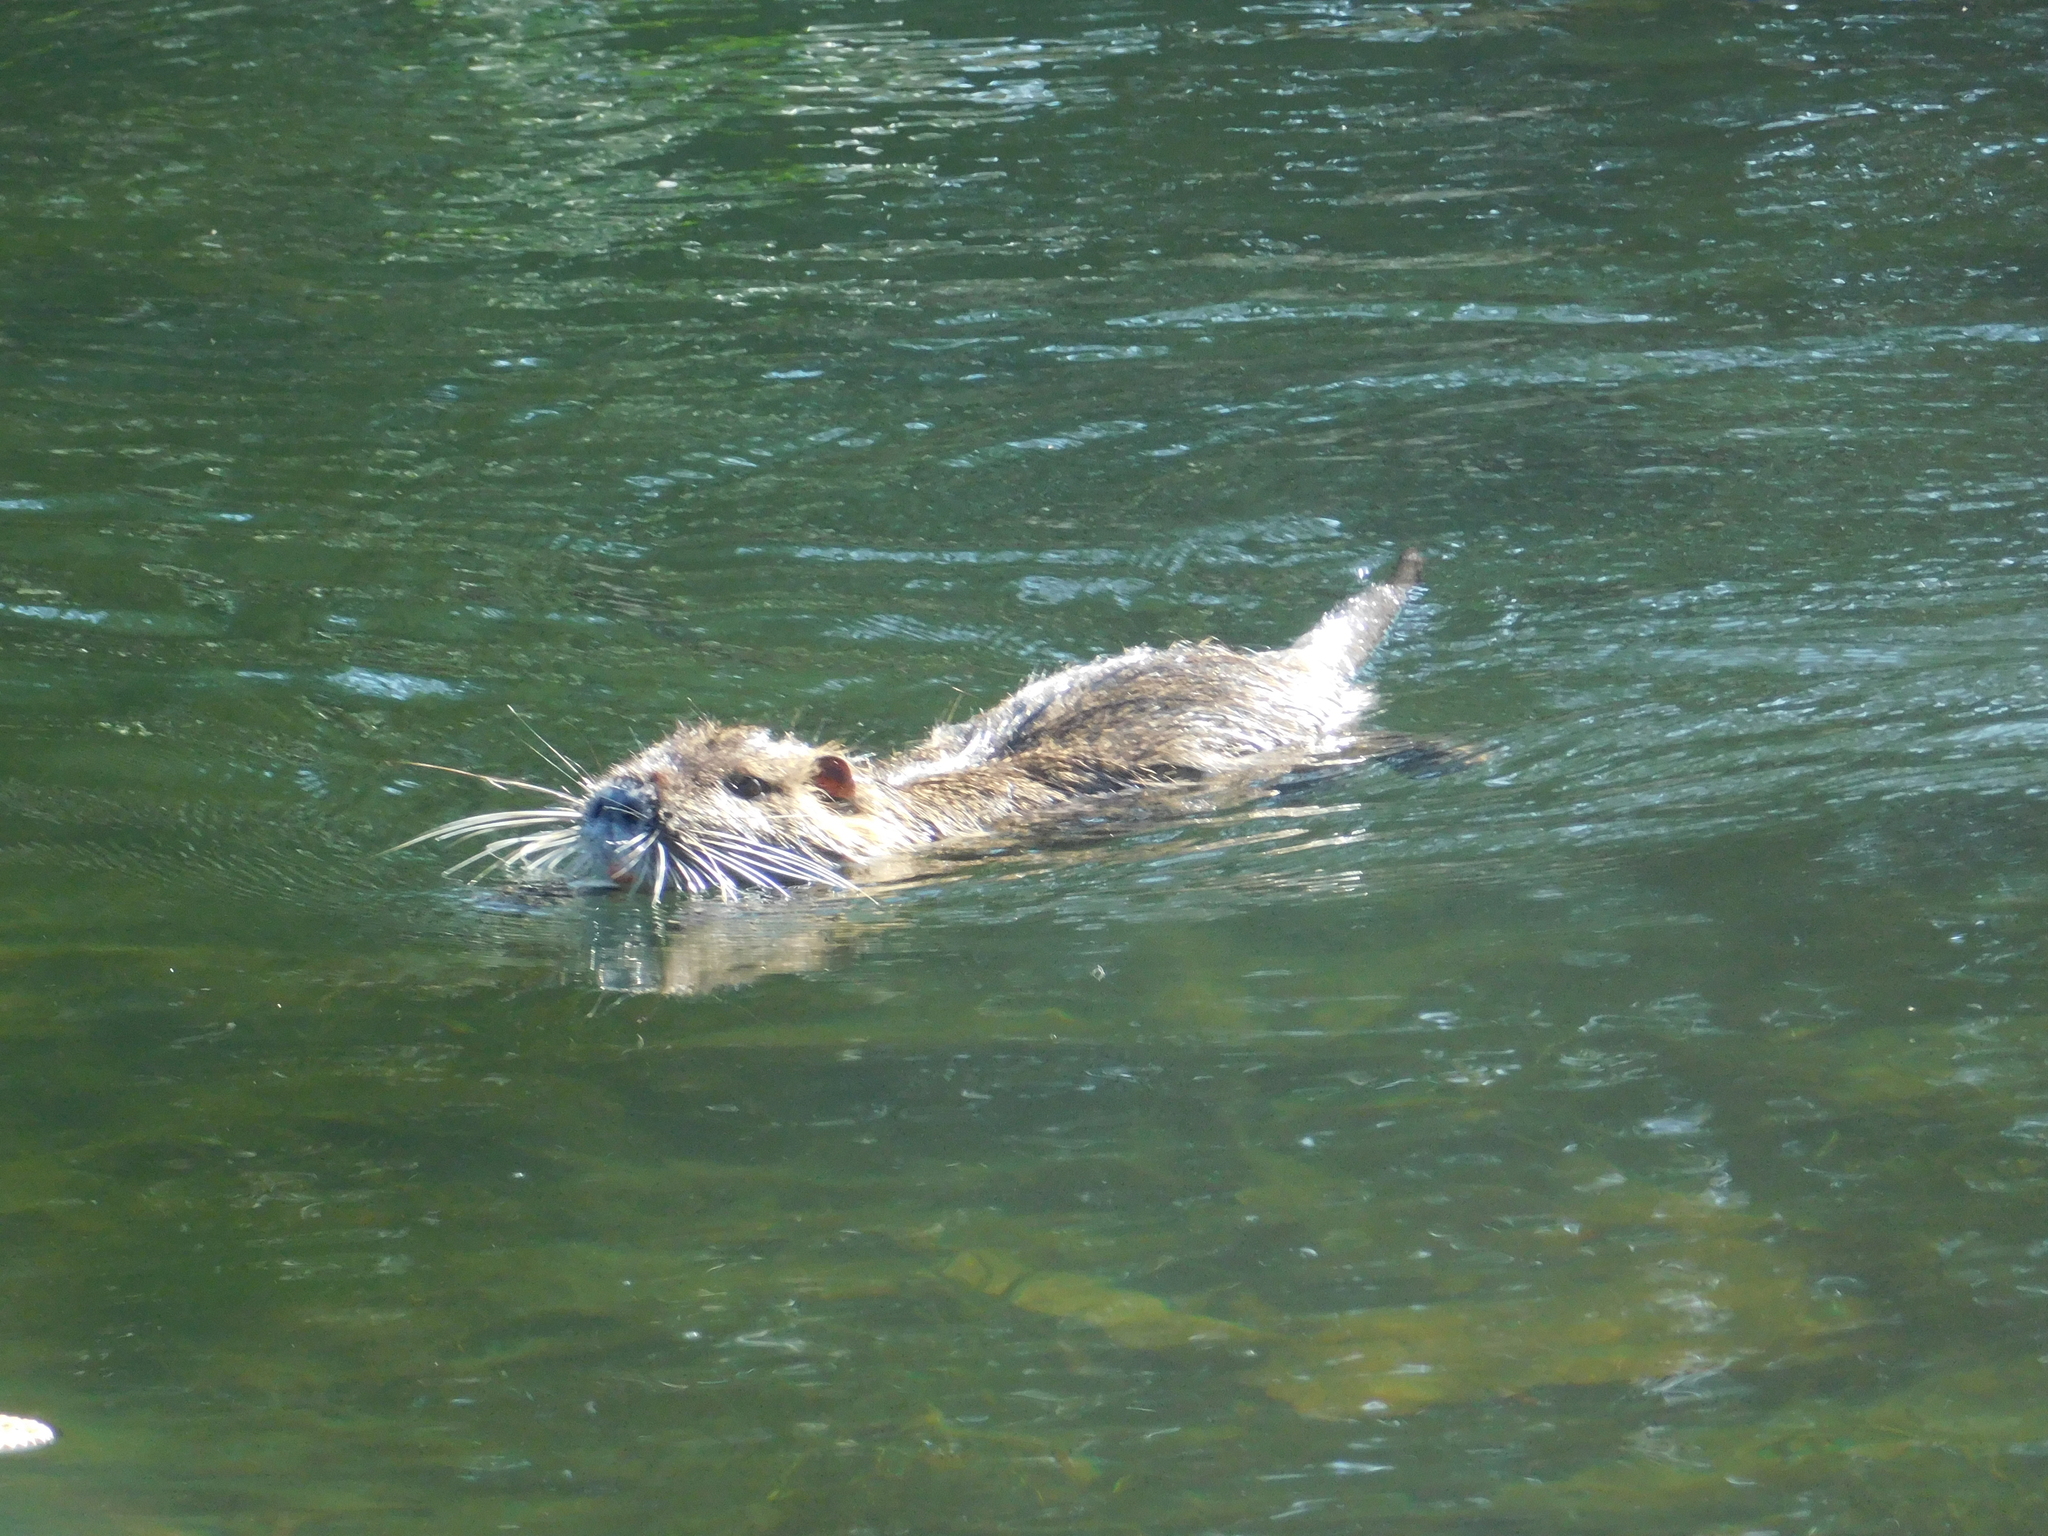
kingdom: Animalia
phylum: Chordata
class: Mammalia
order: Rodentia
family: Myocastoridae
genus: Myocastor
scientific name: Myocastor coypus
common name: Coypu
